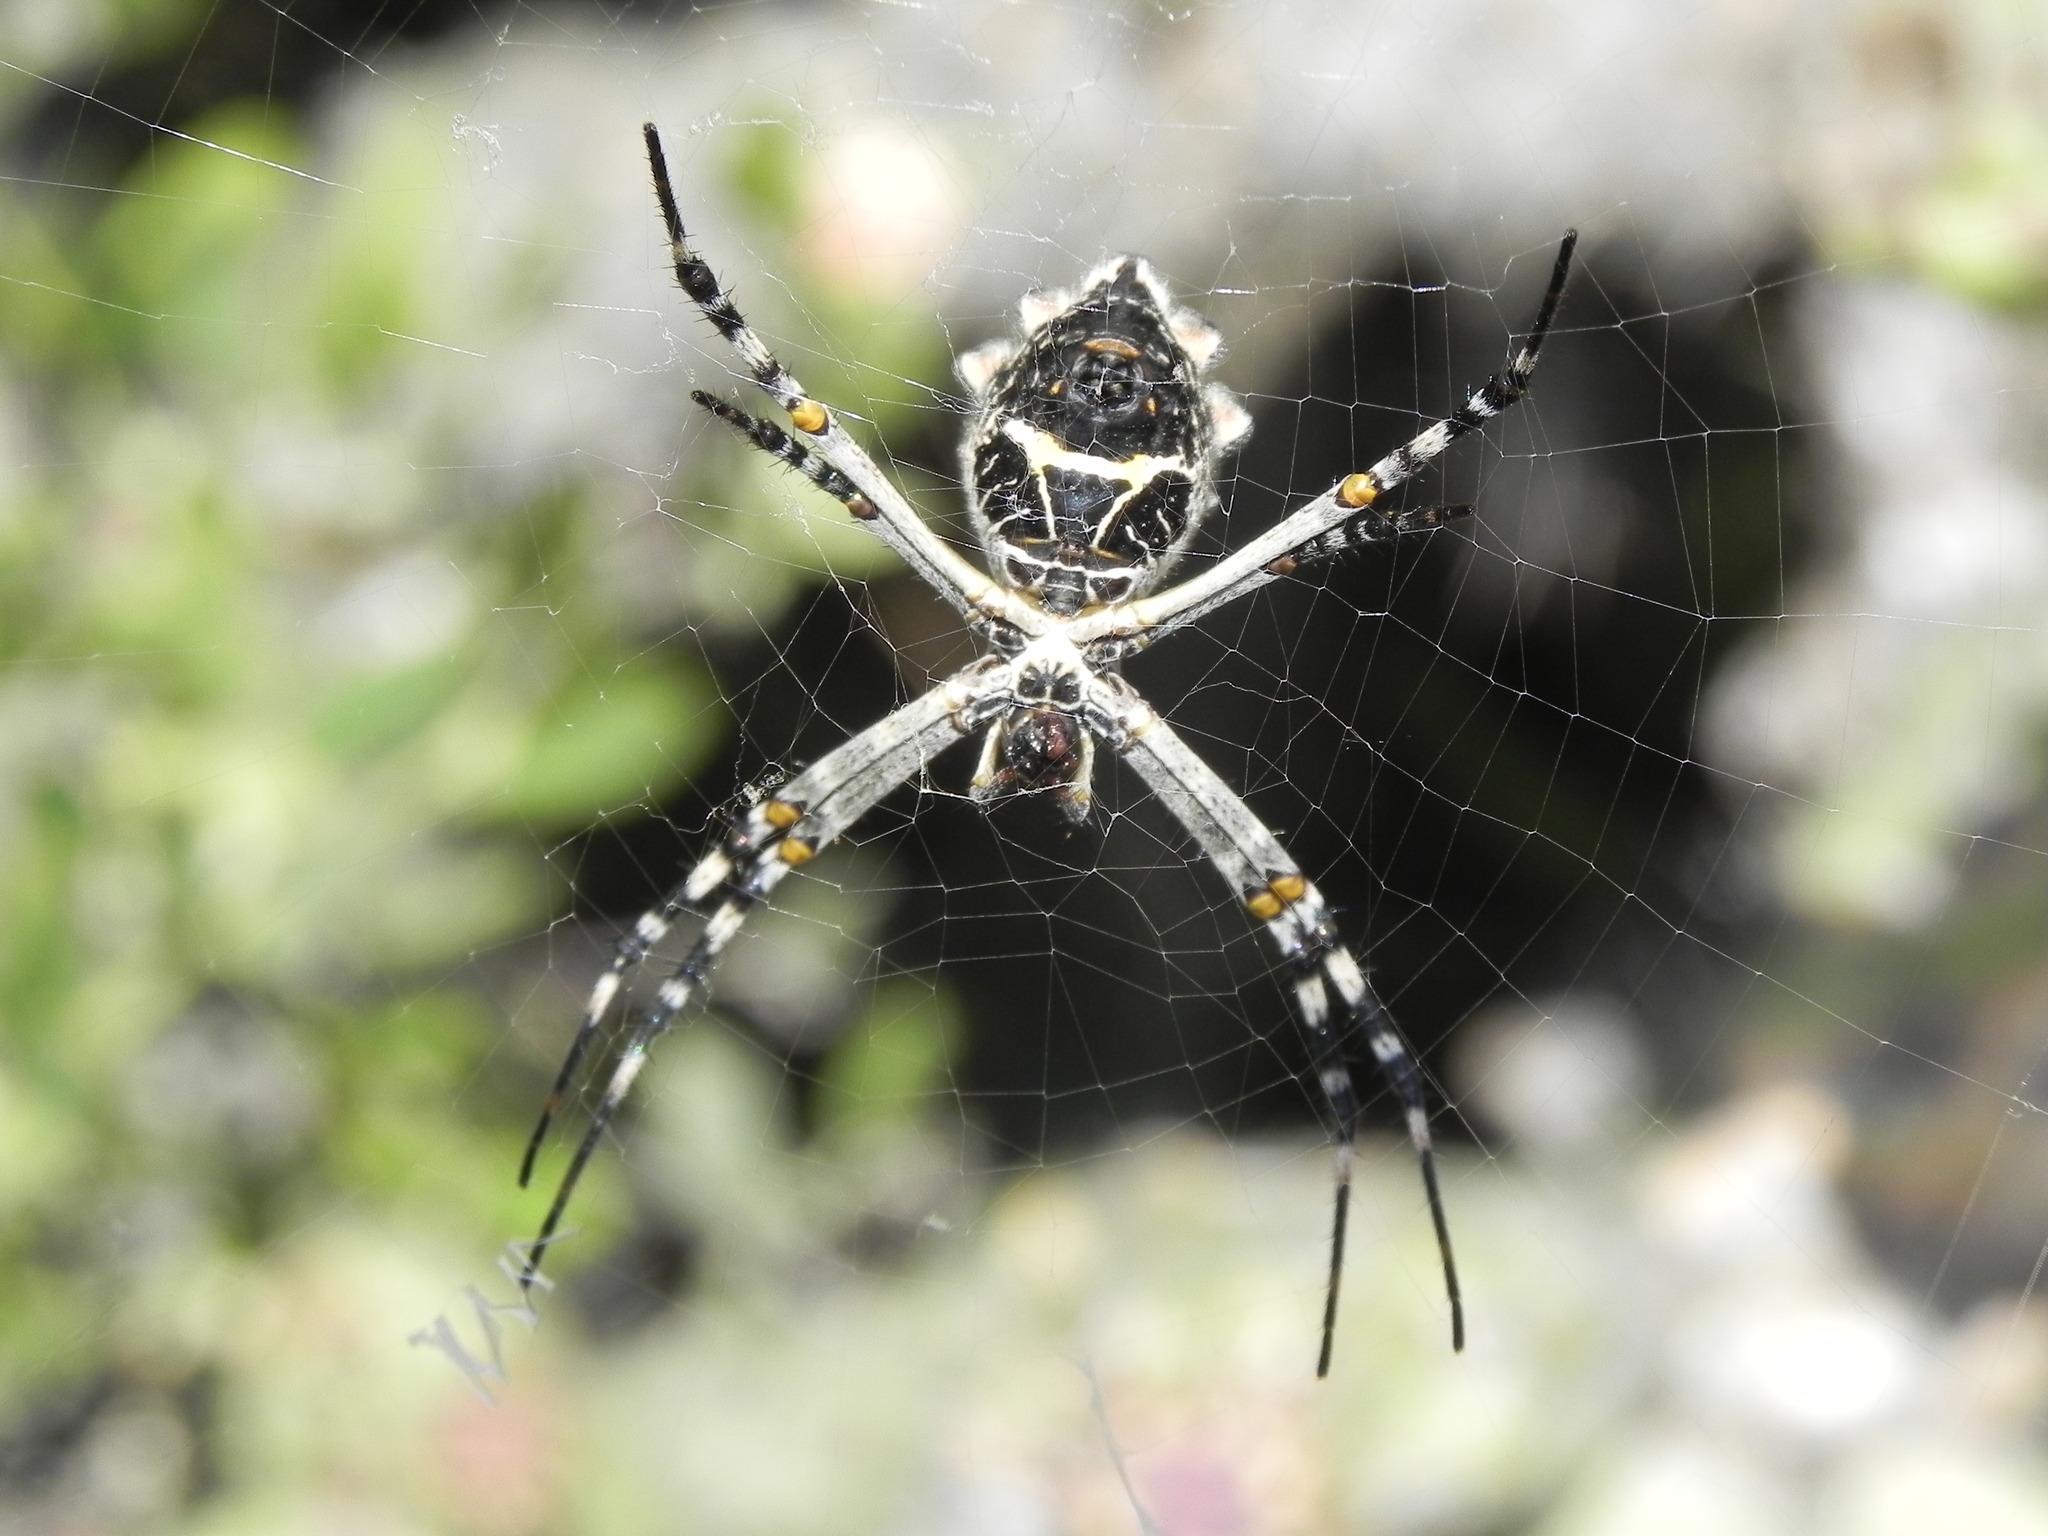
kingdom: Animalia
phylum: Arthropoda
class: Arachnida
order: Araneae
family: Araneidae
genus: Argiope
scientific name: Argiope argentata
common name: Orb weavers
